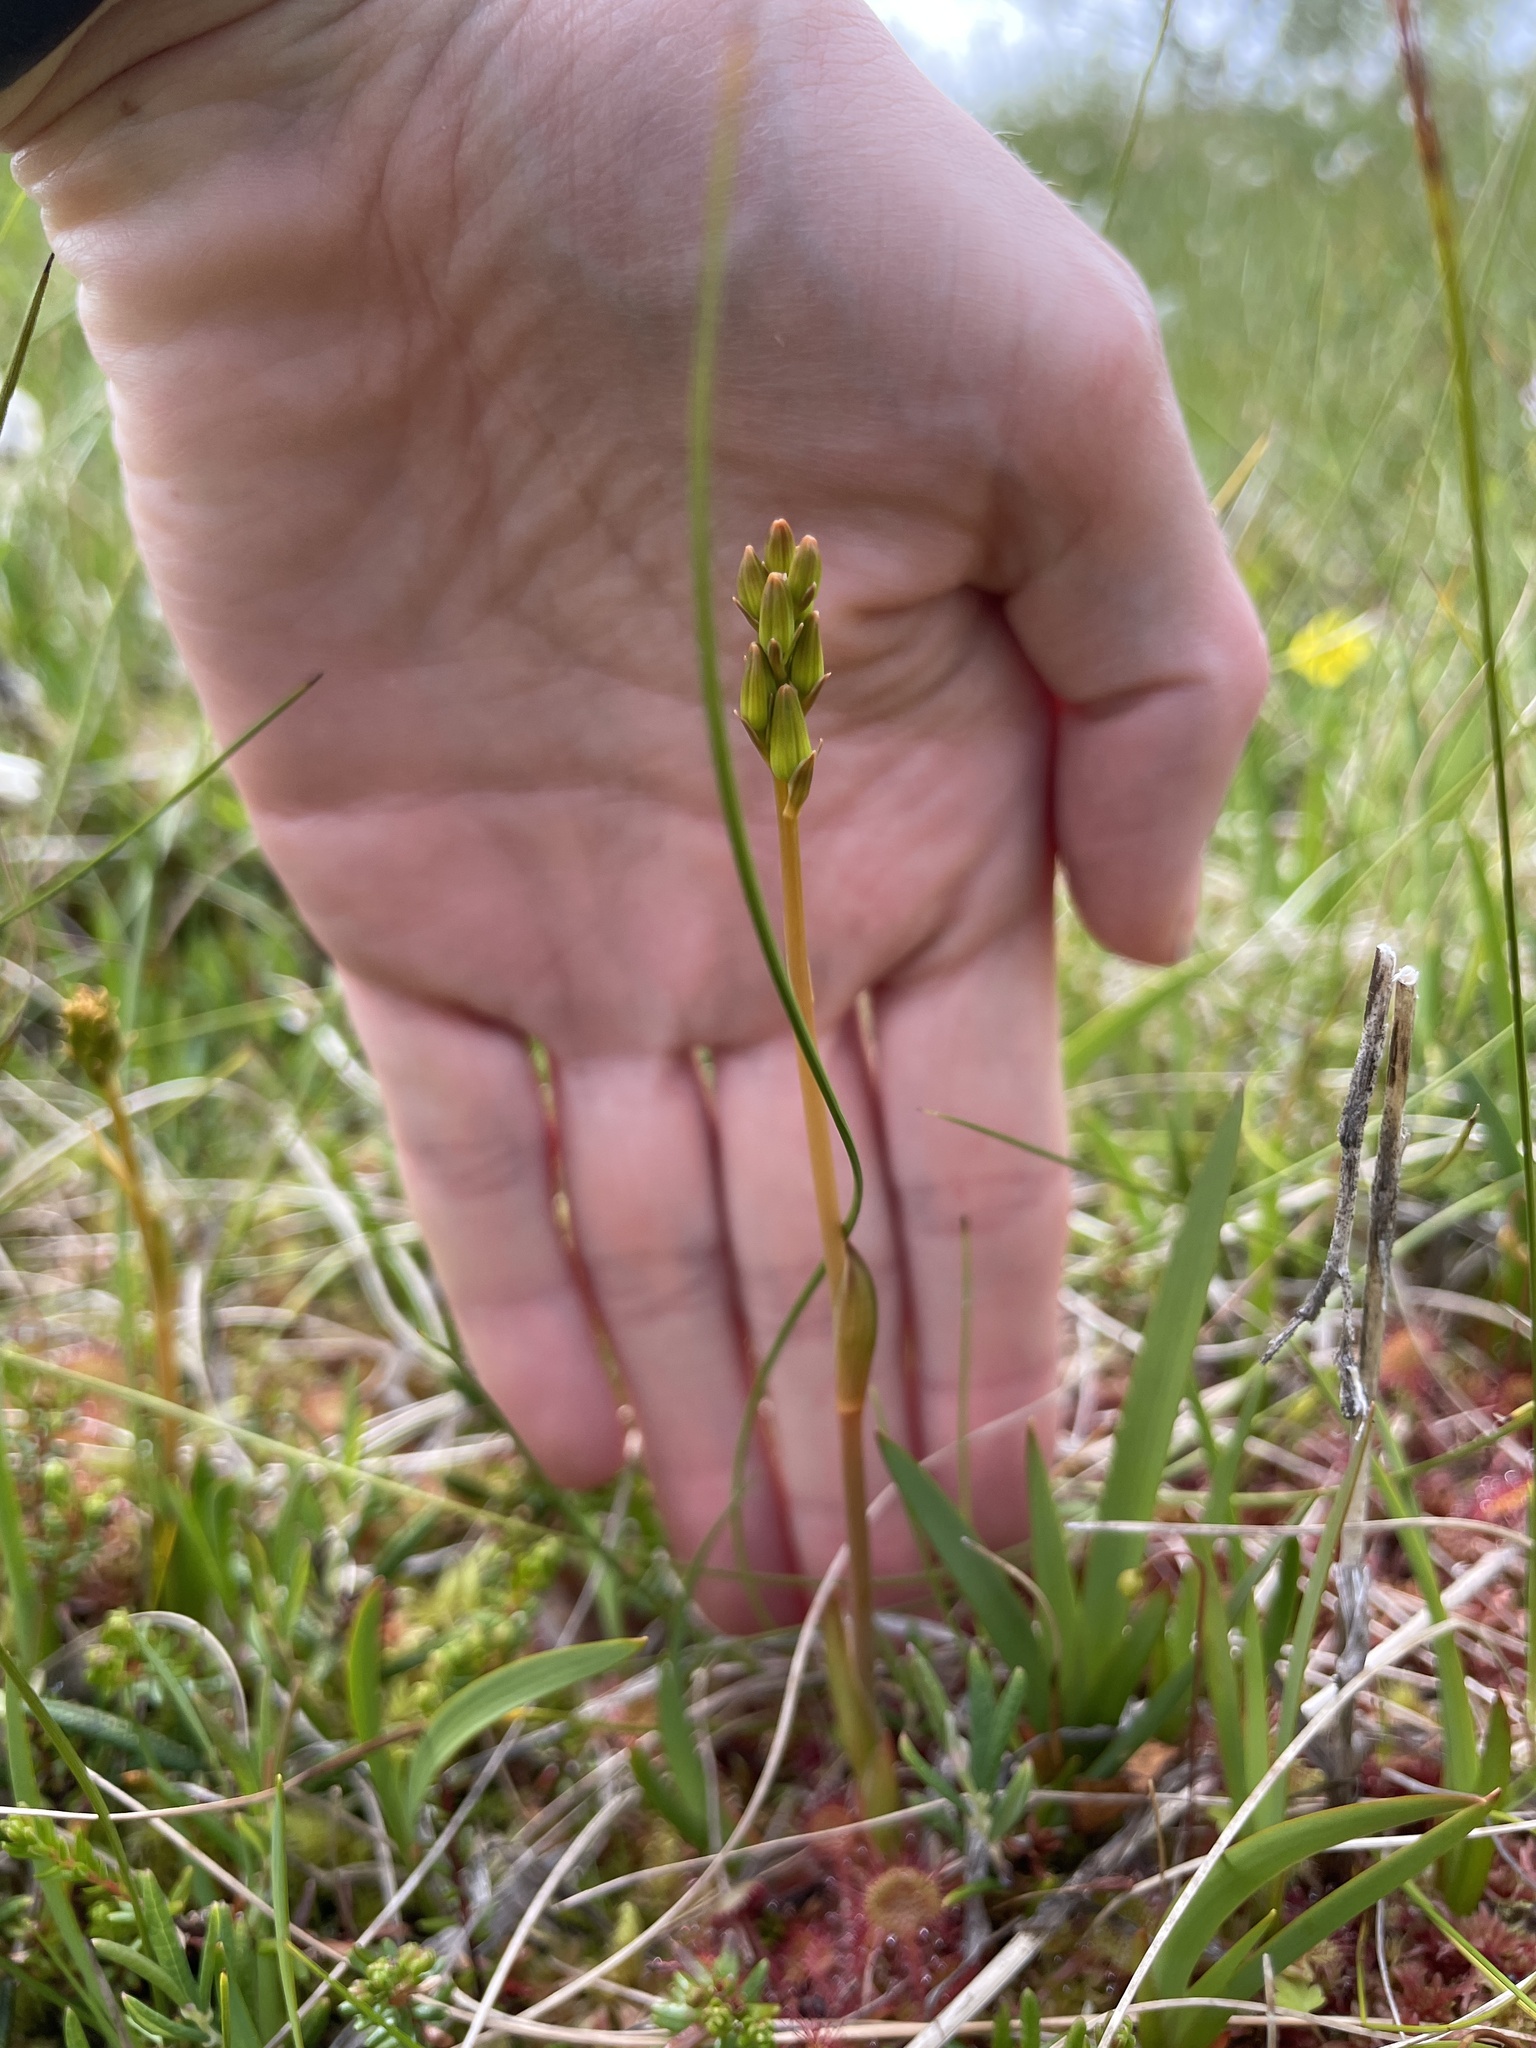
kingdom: Plantae
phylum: Tracheophyta
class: Liliopsida
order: Dioscoreales
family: Nartheciaceae
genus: Narthecium
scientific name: Narthecium ossifragum
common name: Bog asphodel
